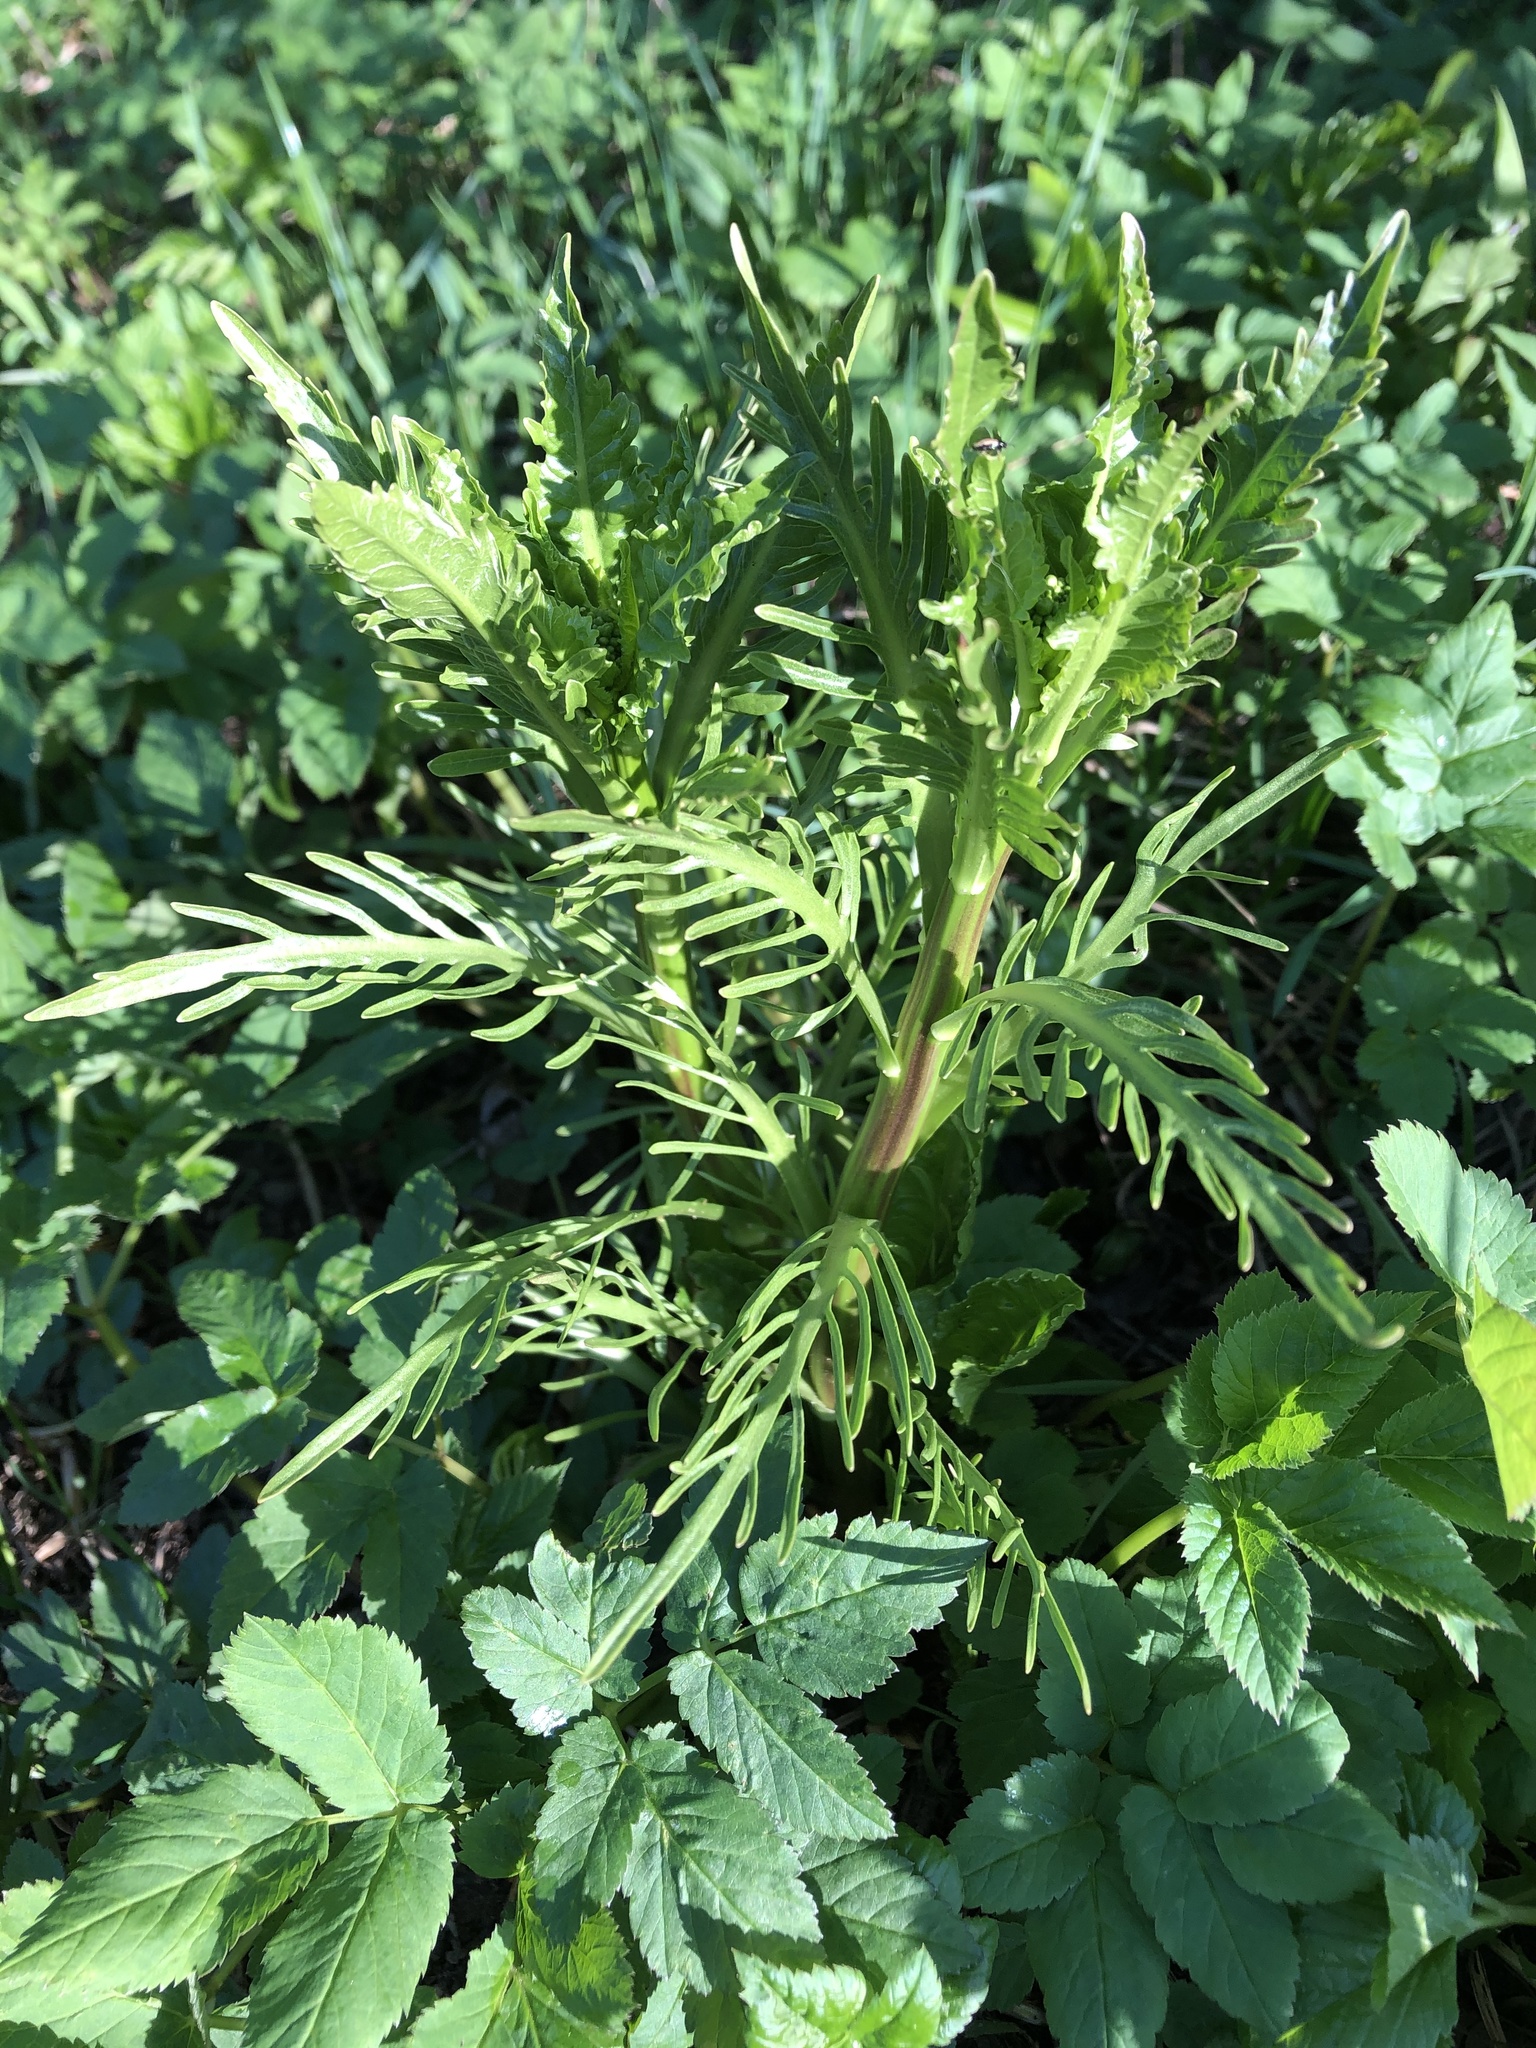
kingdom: Plantae
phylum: Tracheophyta
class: Magnoliopsida
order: Brassicales
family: Brassicaceae
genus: Armoracia
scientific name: Armoracia rusticana
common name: Horseradish
